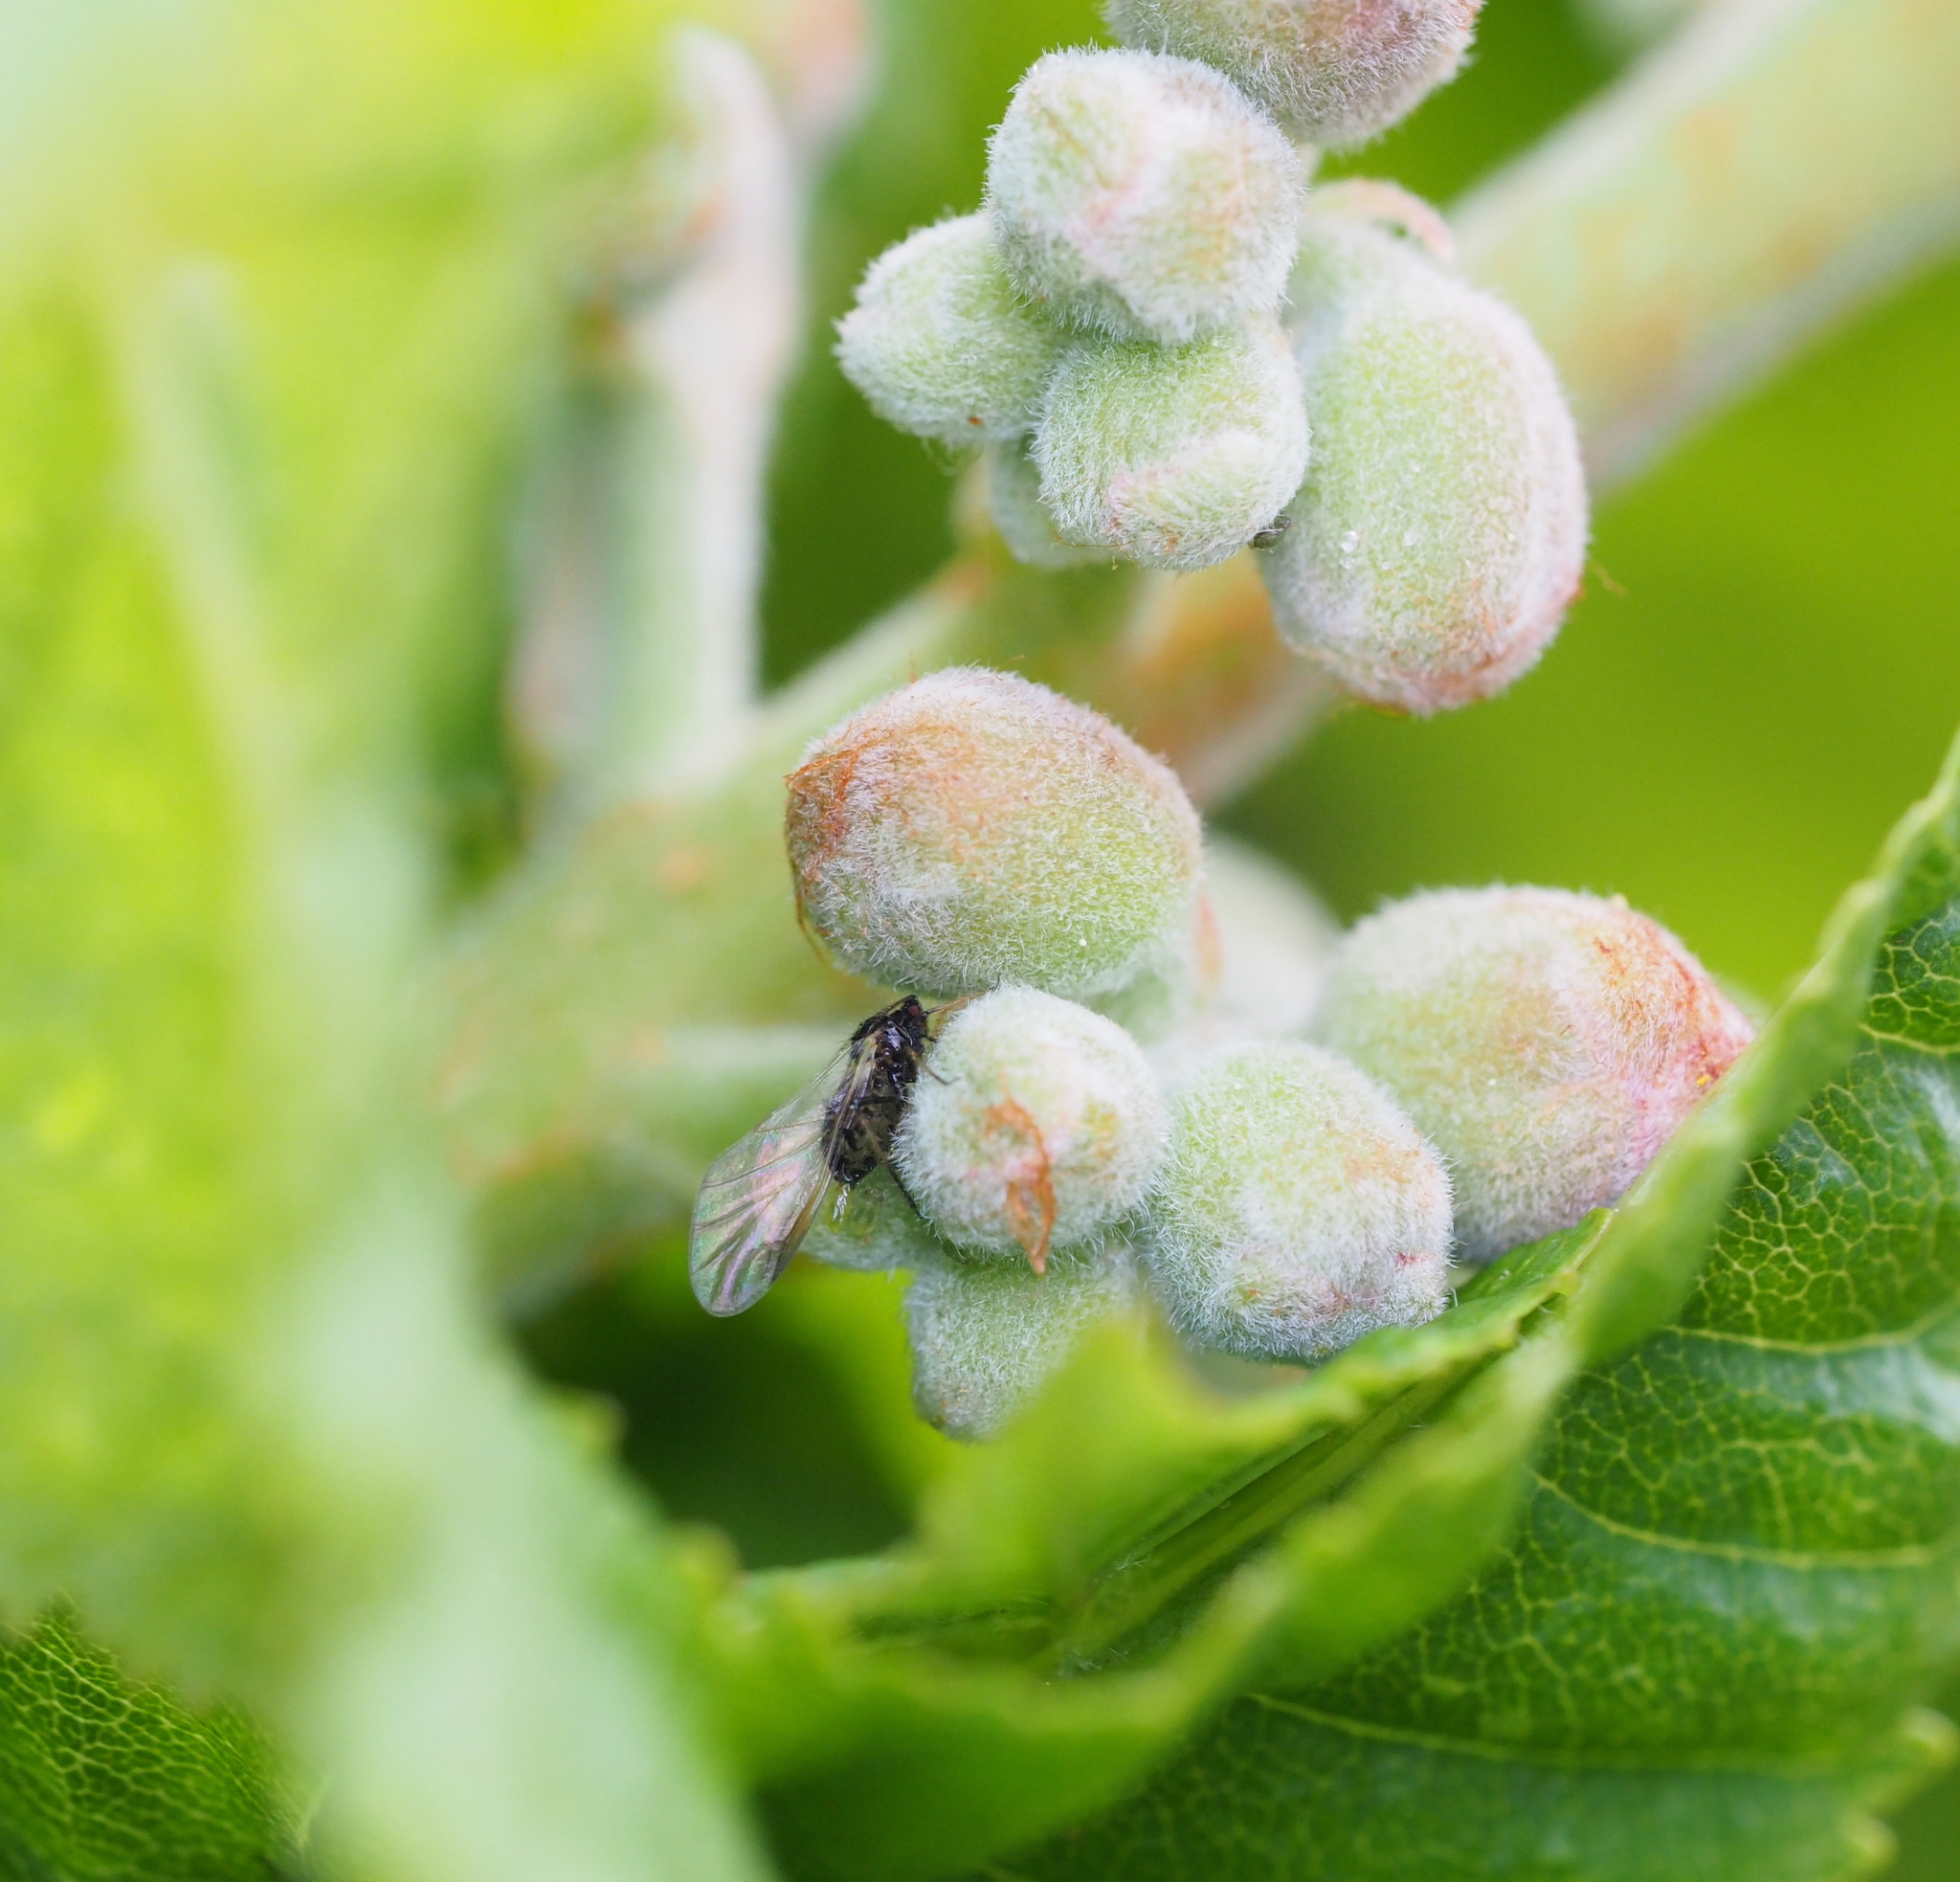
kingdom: Animalia
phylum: Arthropoda
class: Insecta
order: Hemiptera
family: Aphididae
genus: Periphyllus
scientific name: Periphyllus testudinaceus
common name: Common maple aphid
